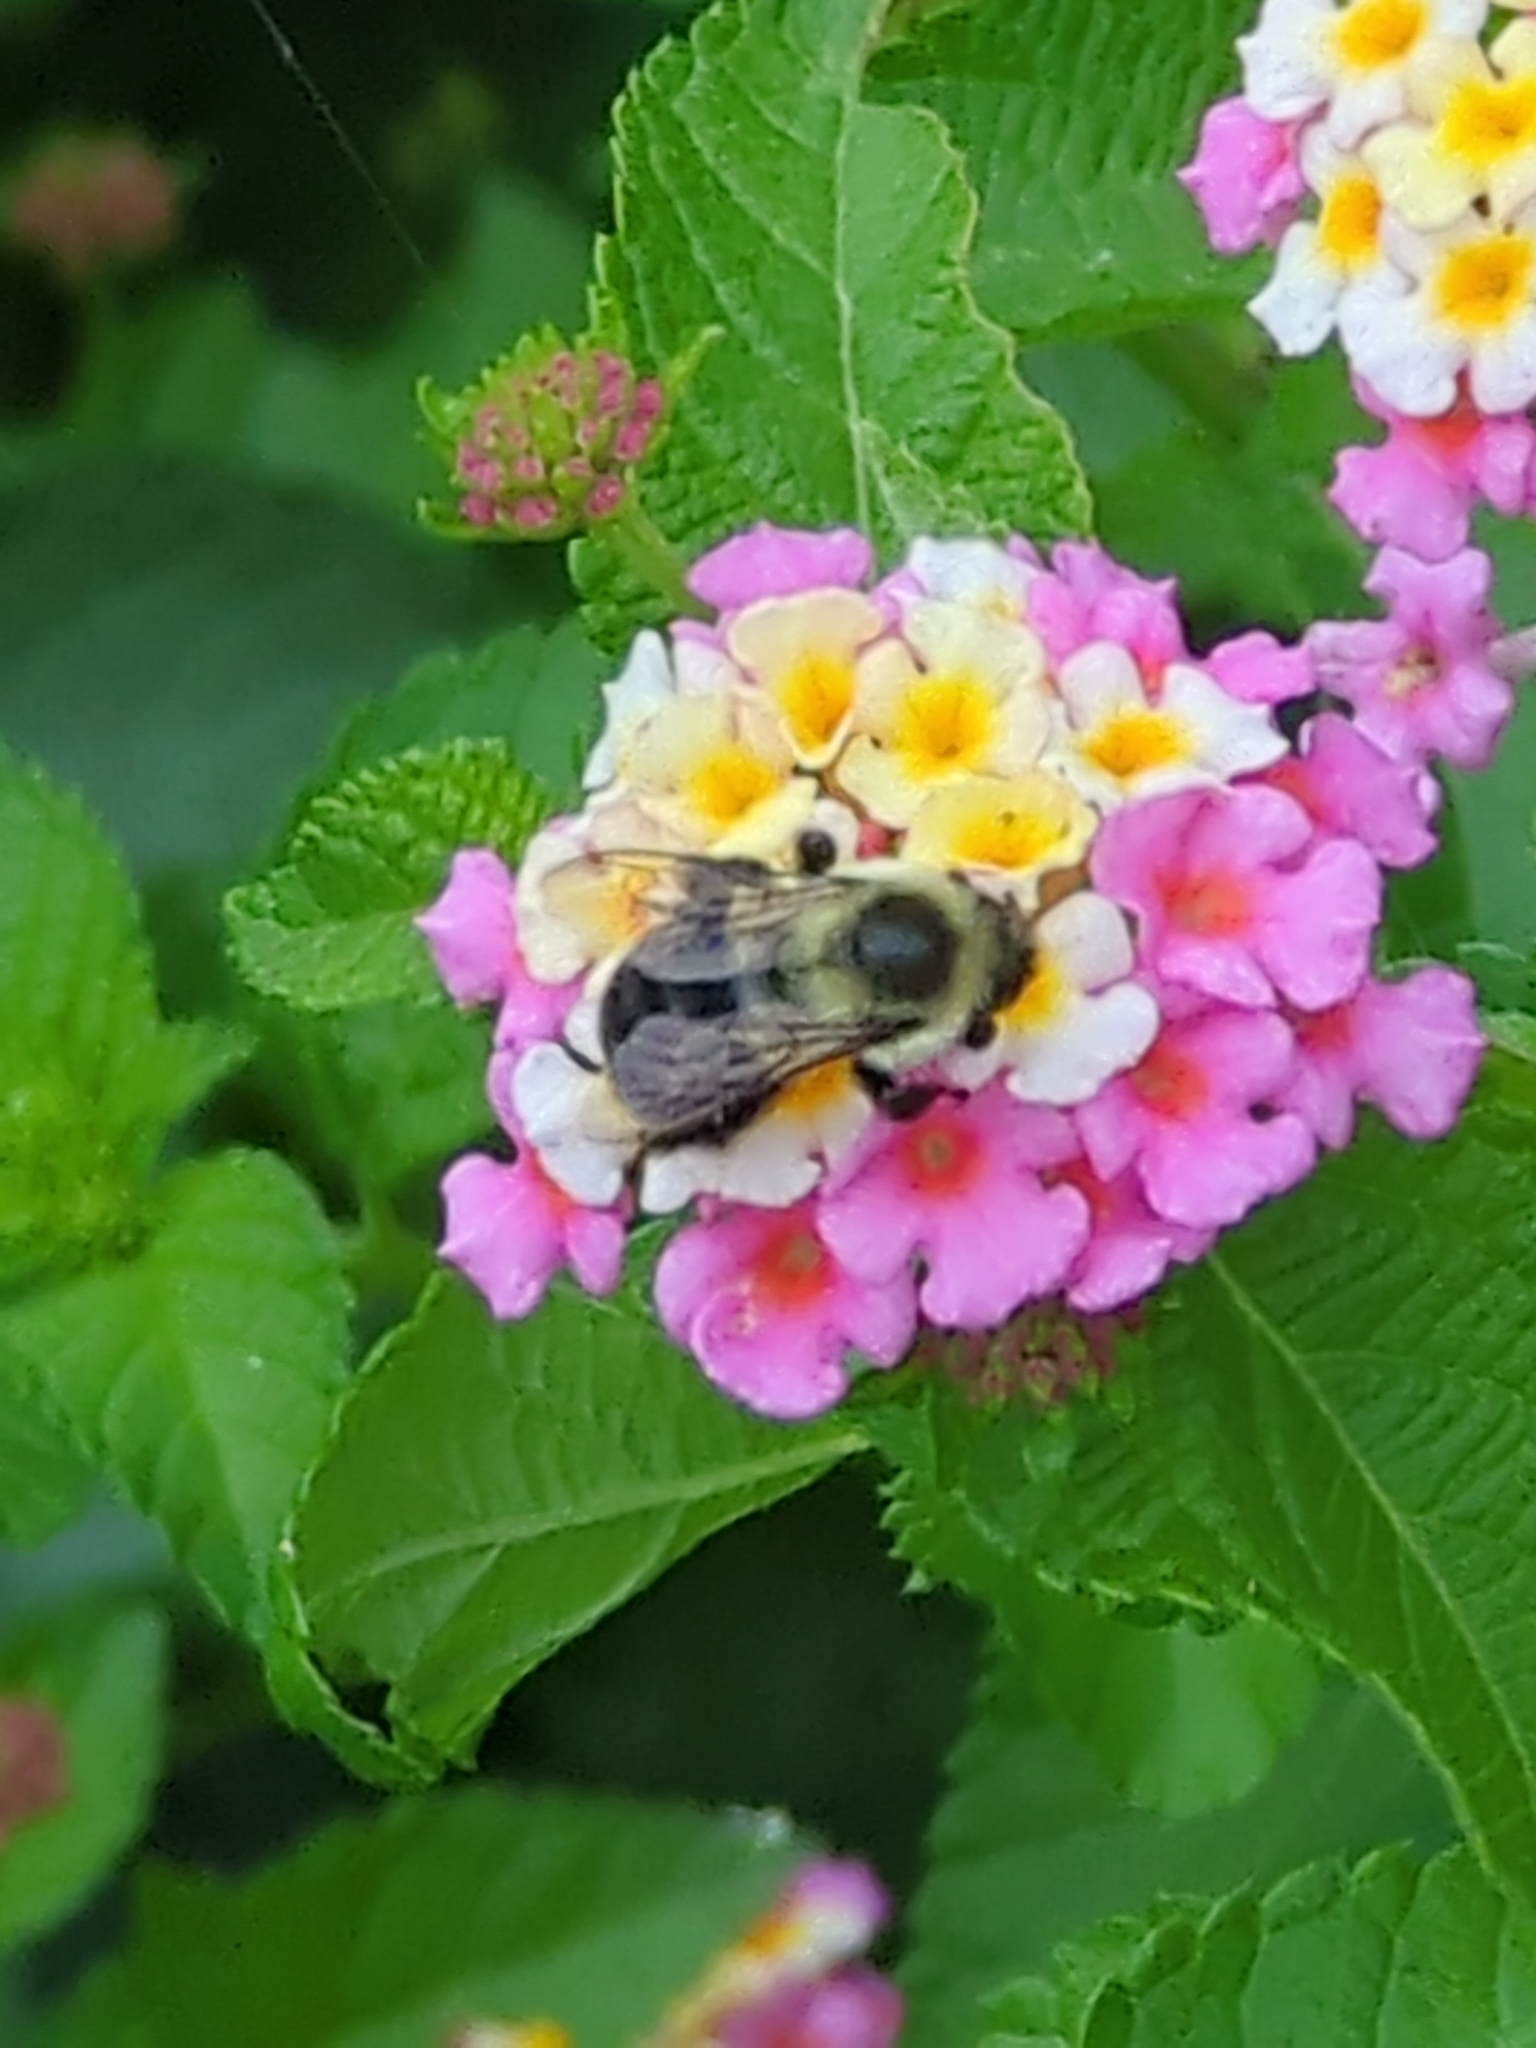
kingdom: Animalia
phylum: Arthropoda
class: Insecta
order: Hymenoptera
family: Apidae
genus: Bombus
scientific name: Bombus impatiens
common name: Common eastern bumble bee
